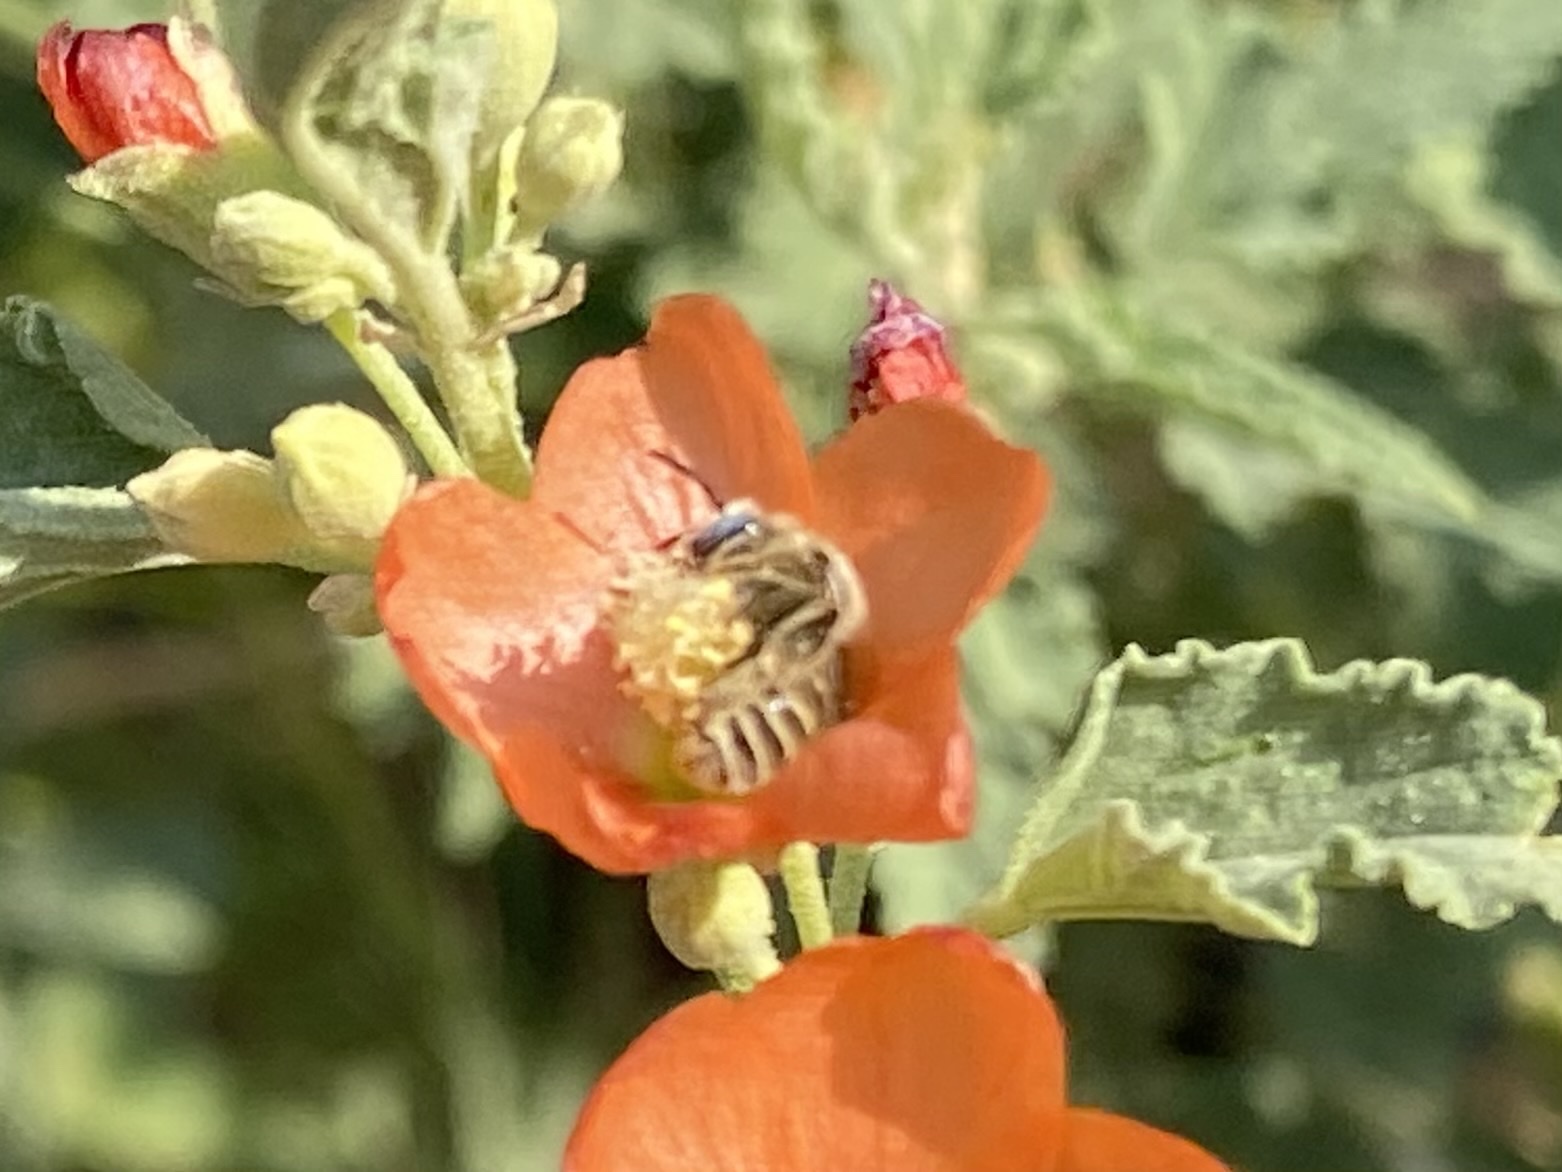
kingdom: Animalia
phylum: Arthropoda
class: Insecta
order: Hymenoptera
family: Apidae
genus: Diadasia
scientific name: Diadasia
